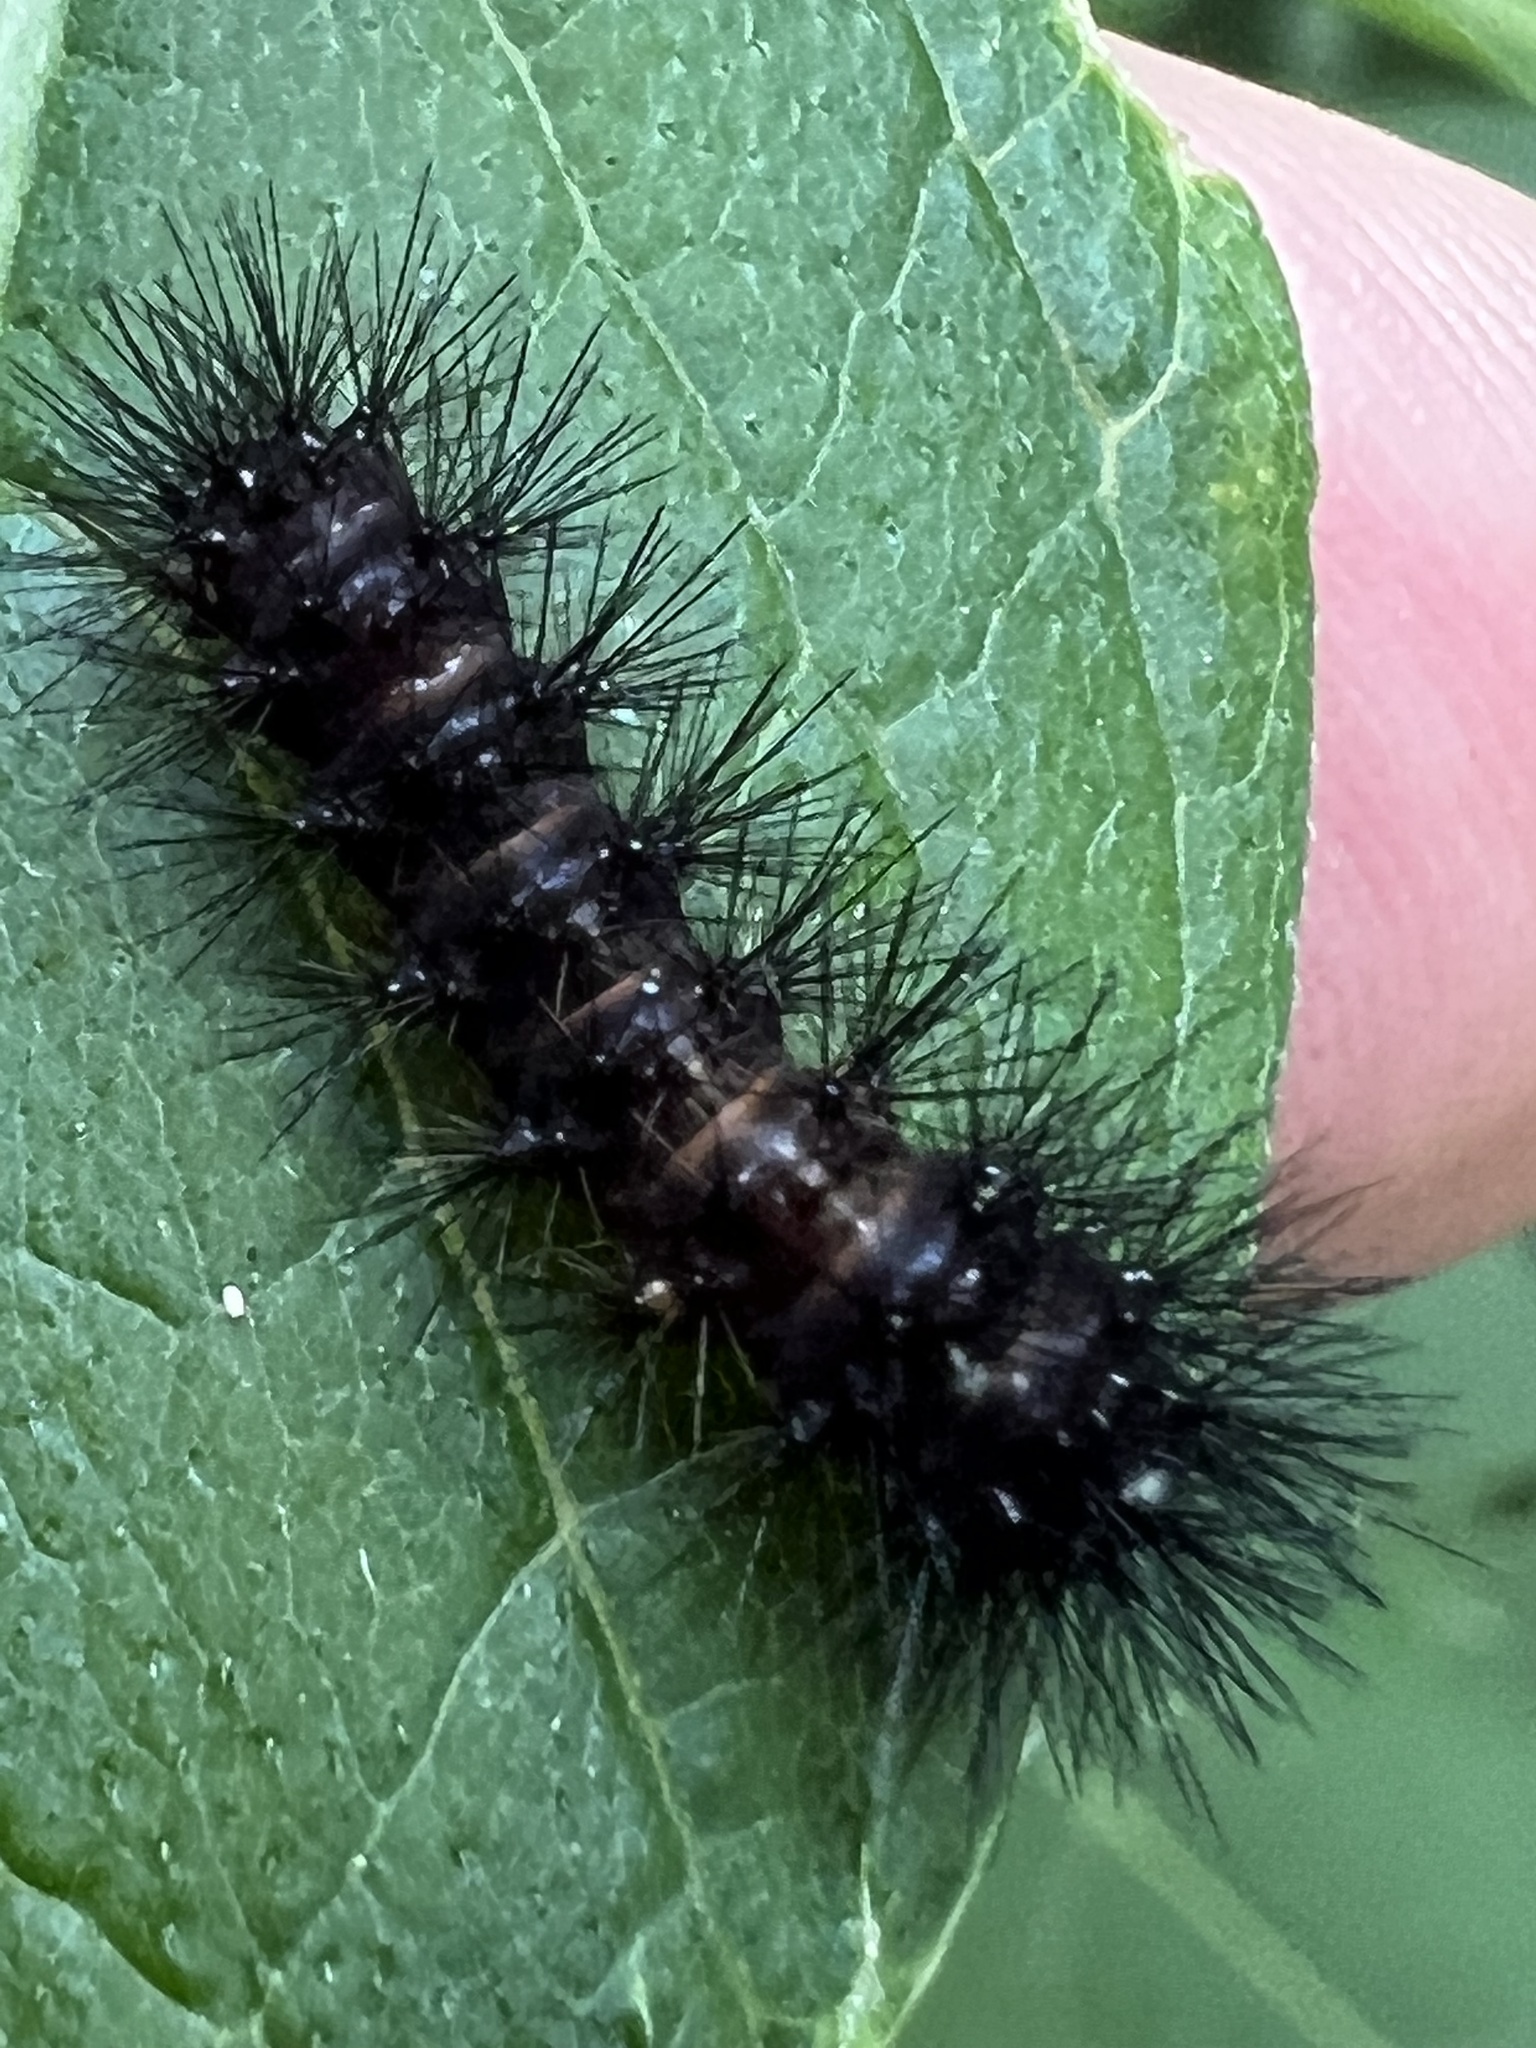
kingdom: Animalia
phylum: Arthropoda
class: Insecta
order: Lepidoptera
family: Erebidae
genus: Hypercompe
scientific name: Hypercompe scribonia
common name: Giant leopard moth
